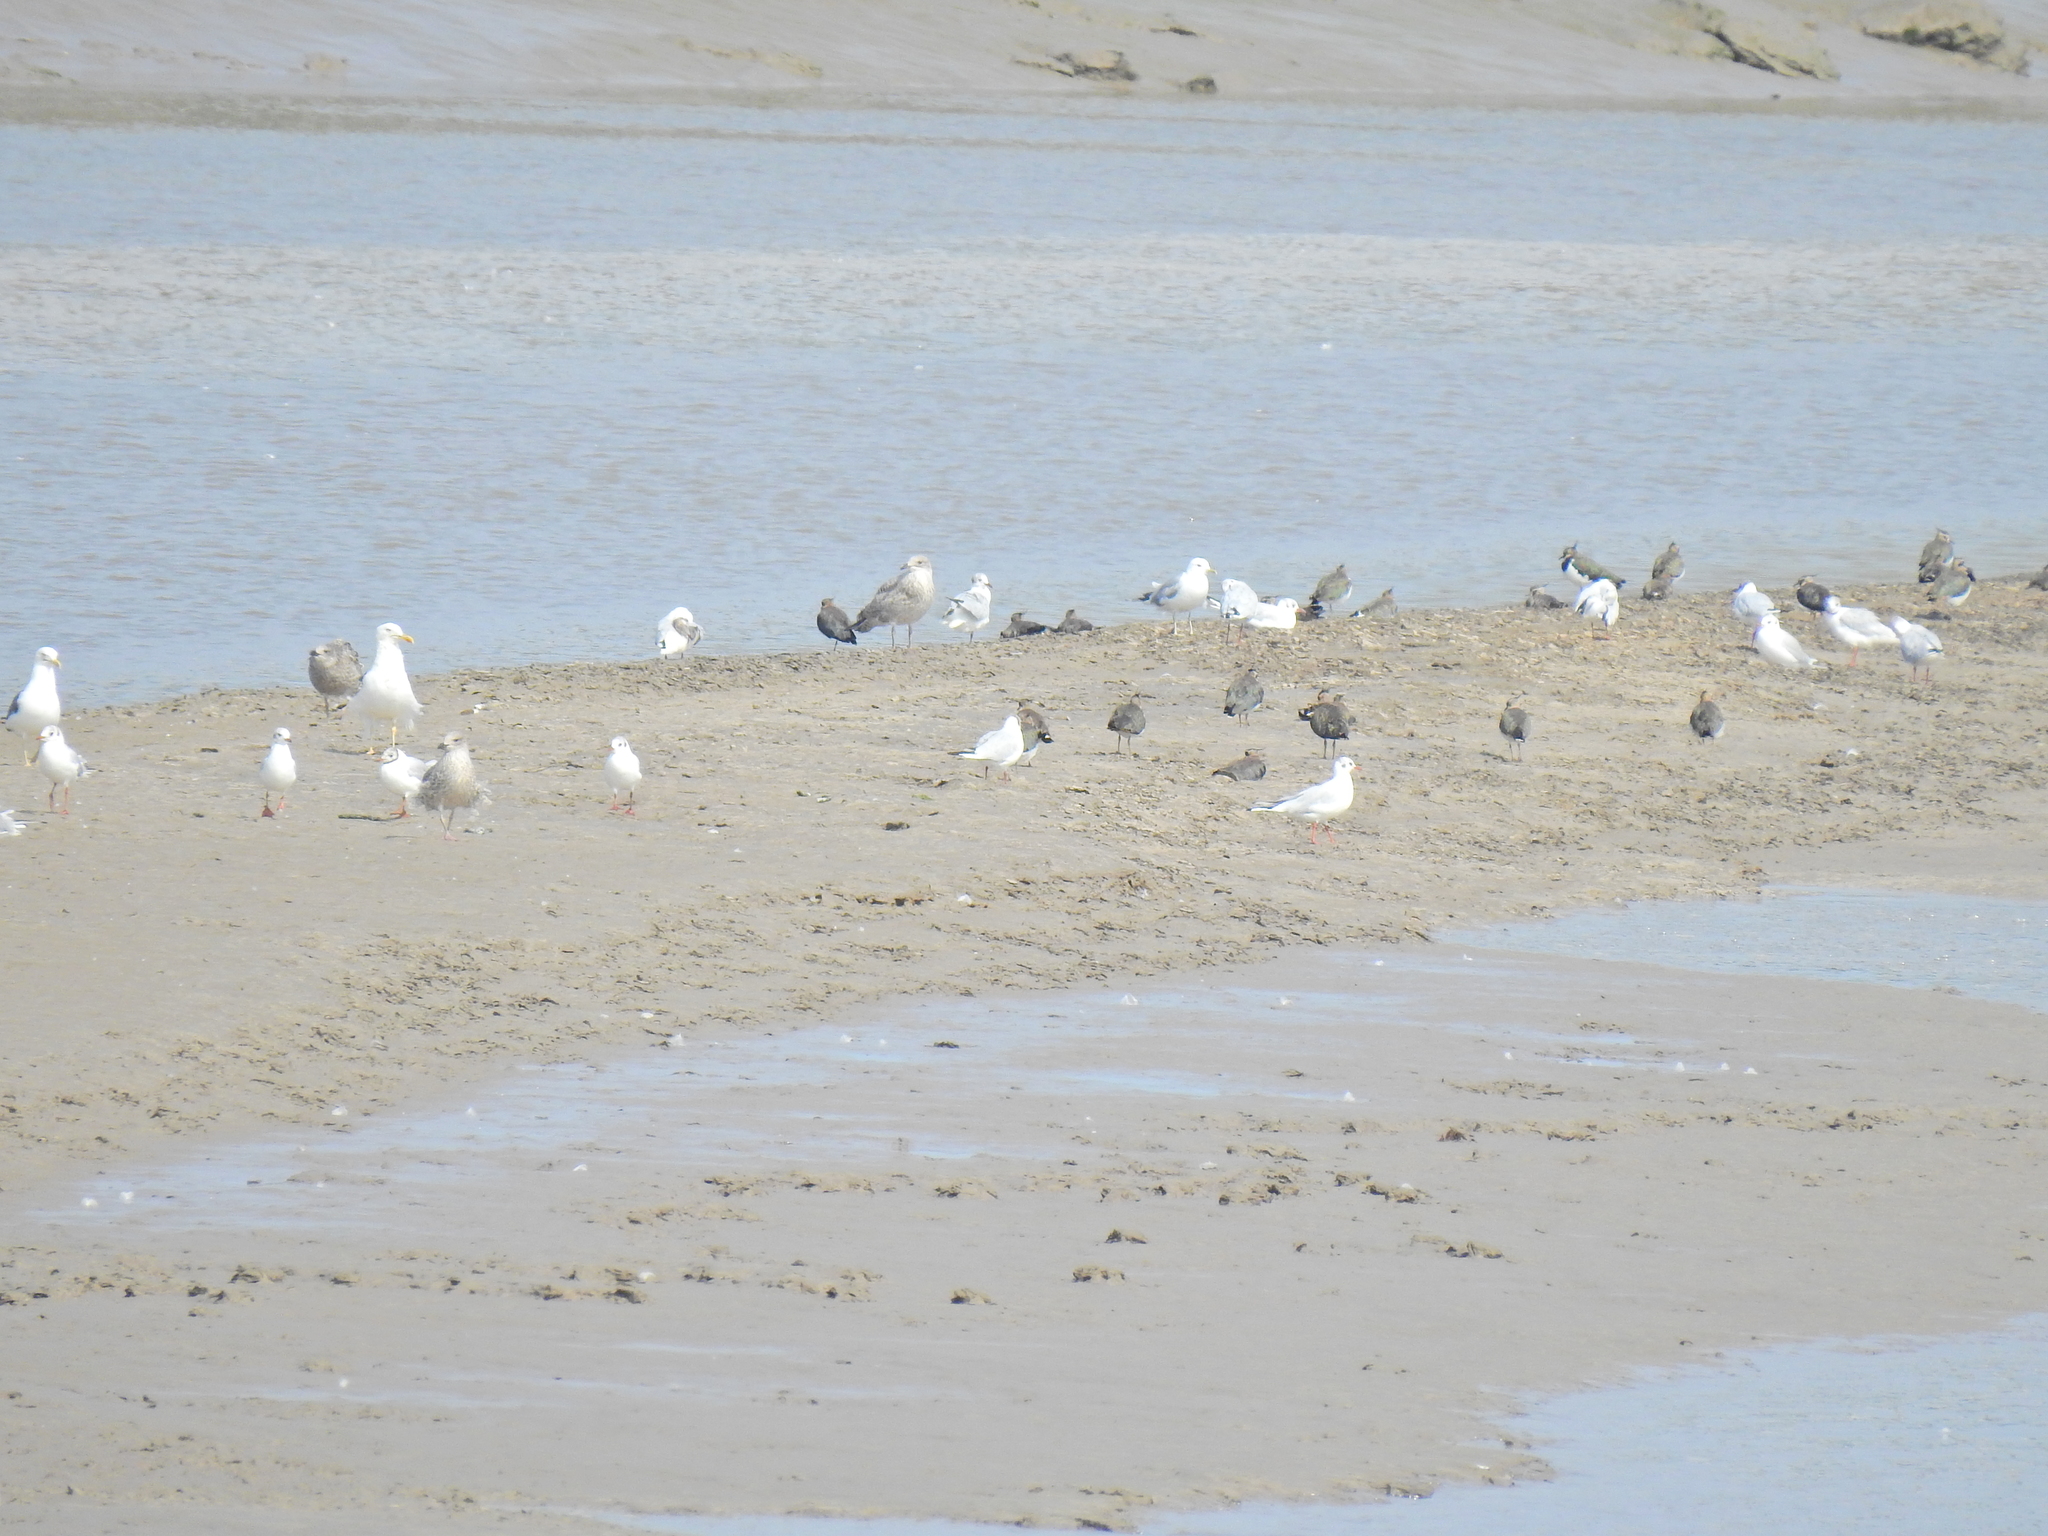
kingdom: Animalia
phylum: Chordata
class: Aves
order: Charadriiformes
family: Charadriidae
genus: Vanellus
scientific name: Vanellus vanellus
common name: Northern lapwing
